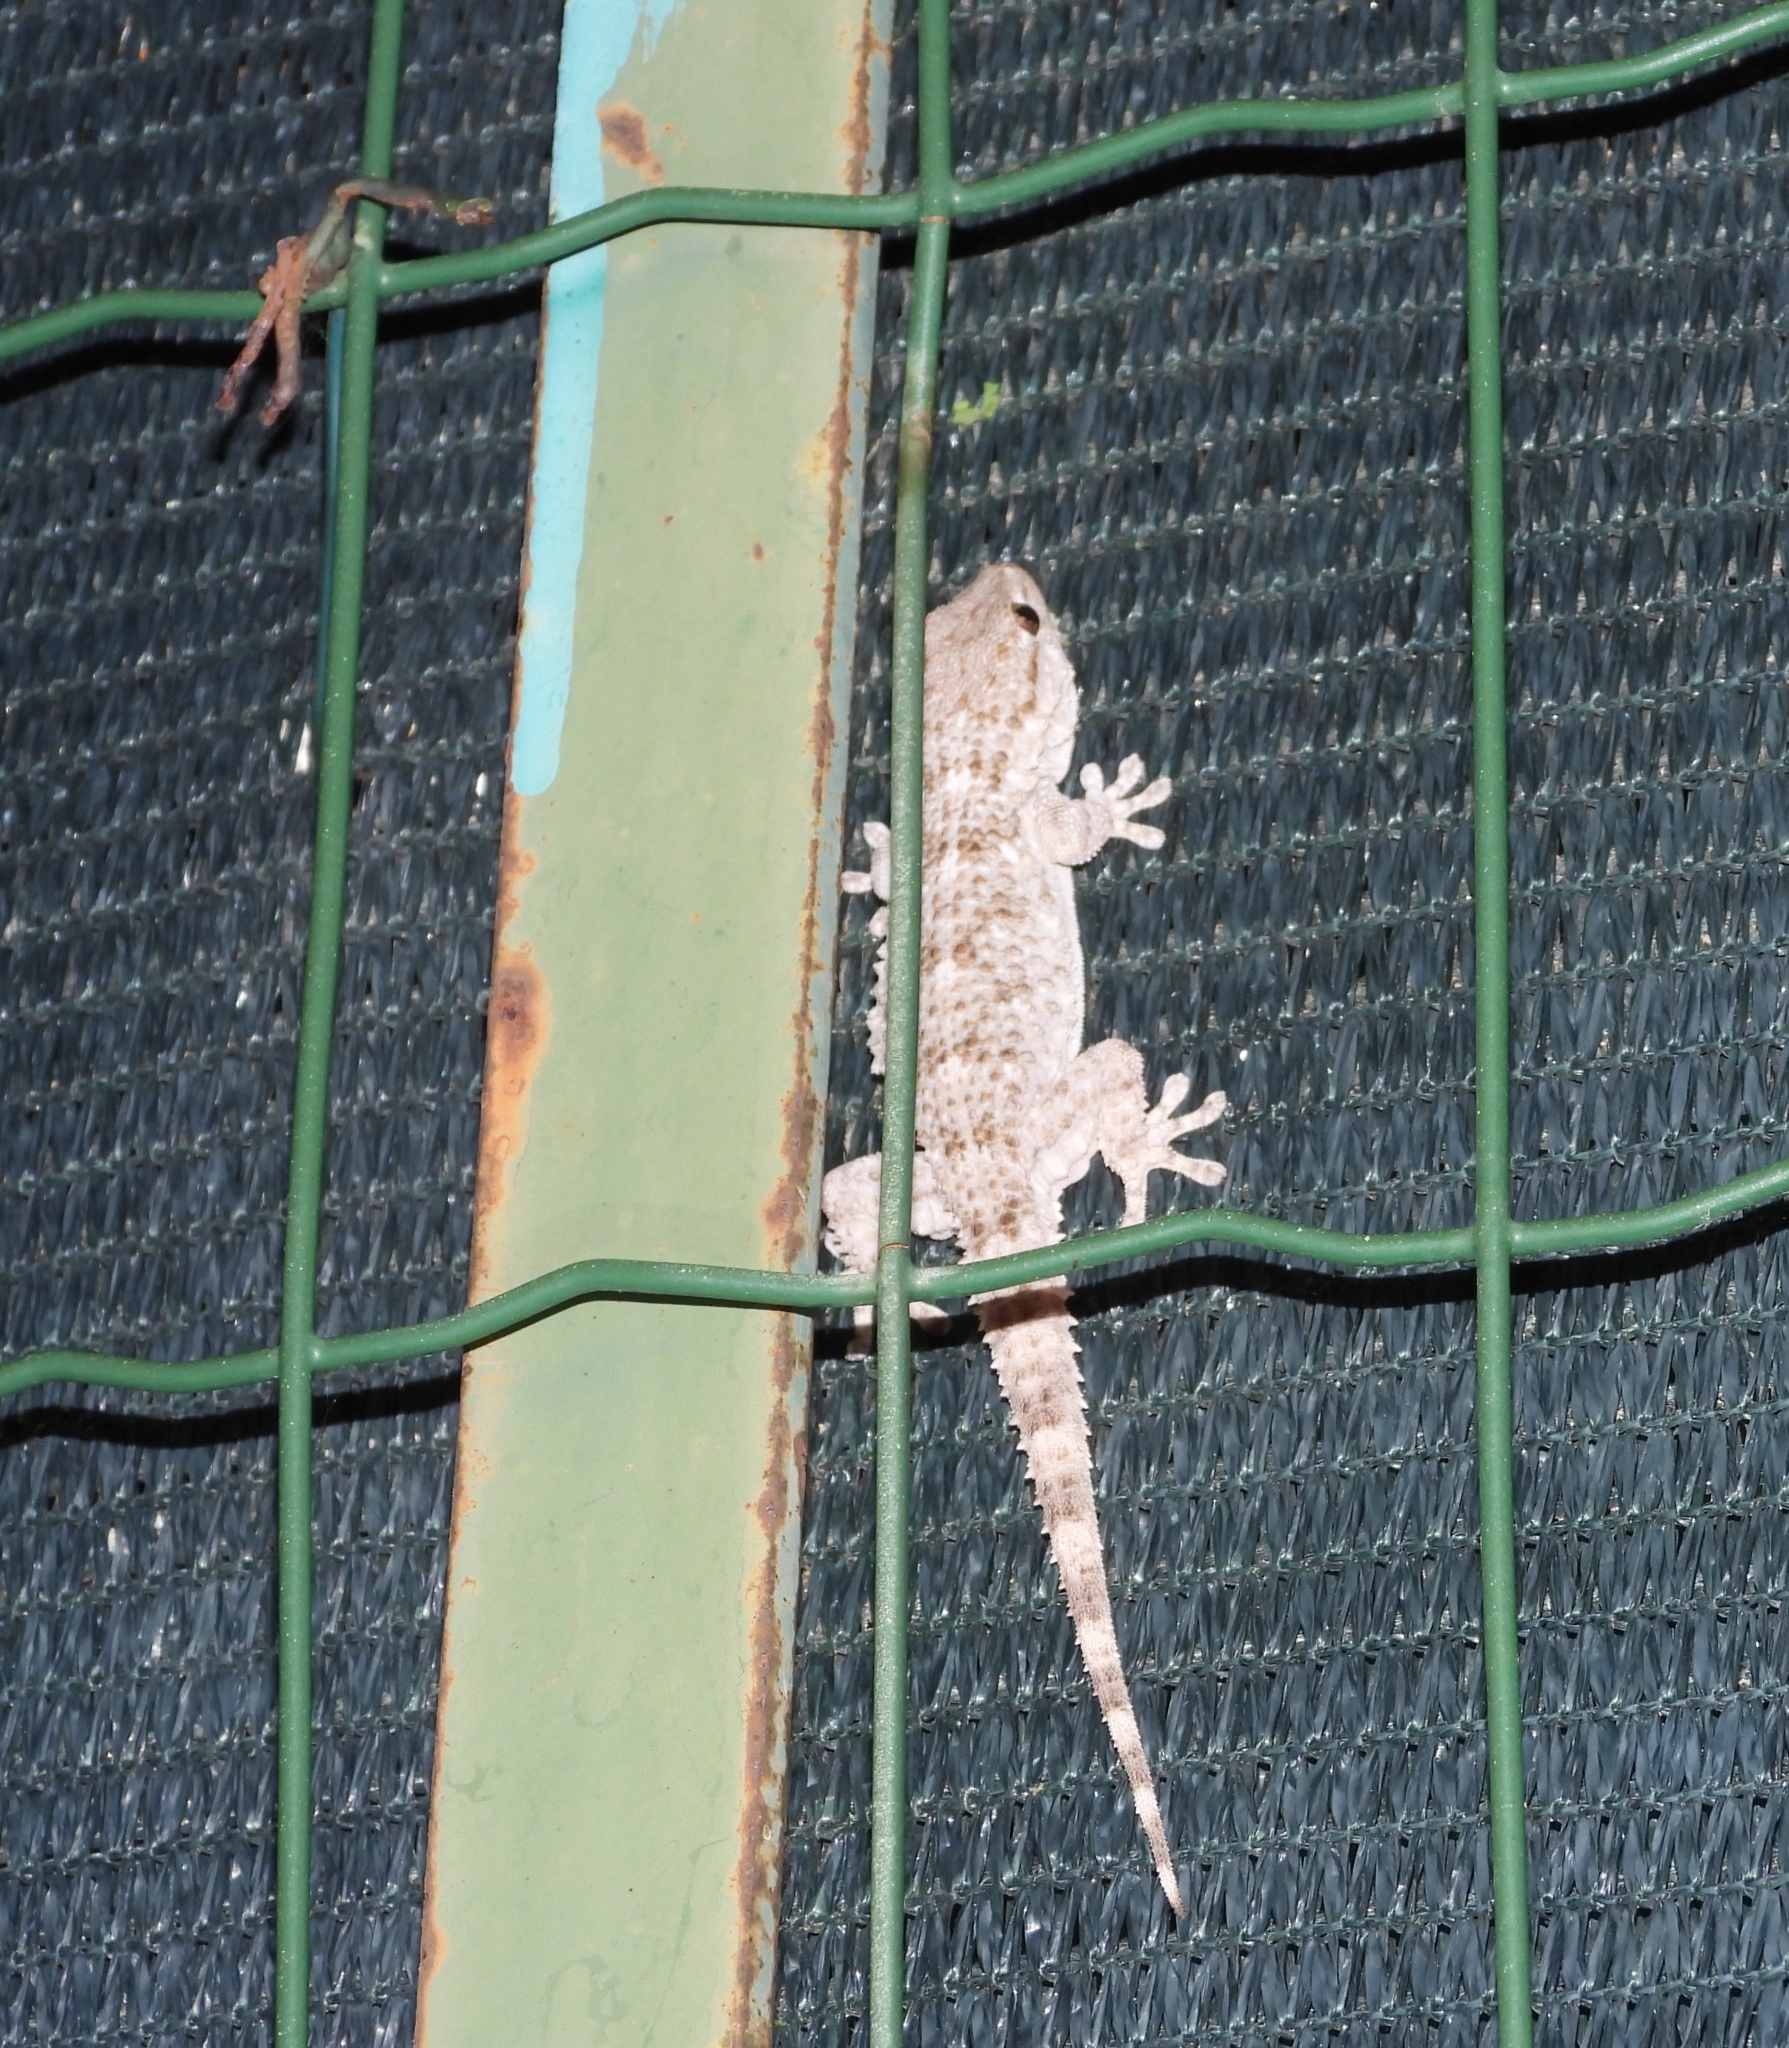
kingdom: Animalia
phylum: Chordata
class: Squamata
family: Phyllodactylidae
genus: Tarentola
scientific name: Tarentola mauritanica
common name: Moorish gecko
